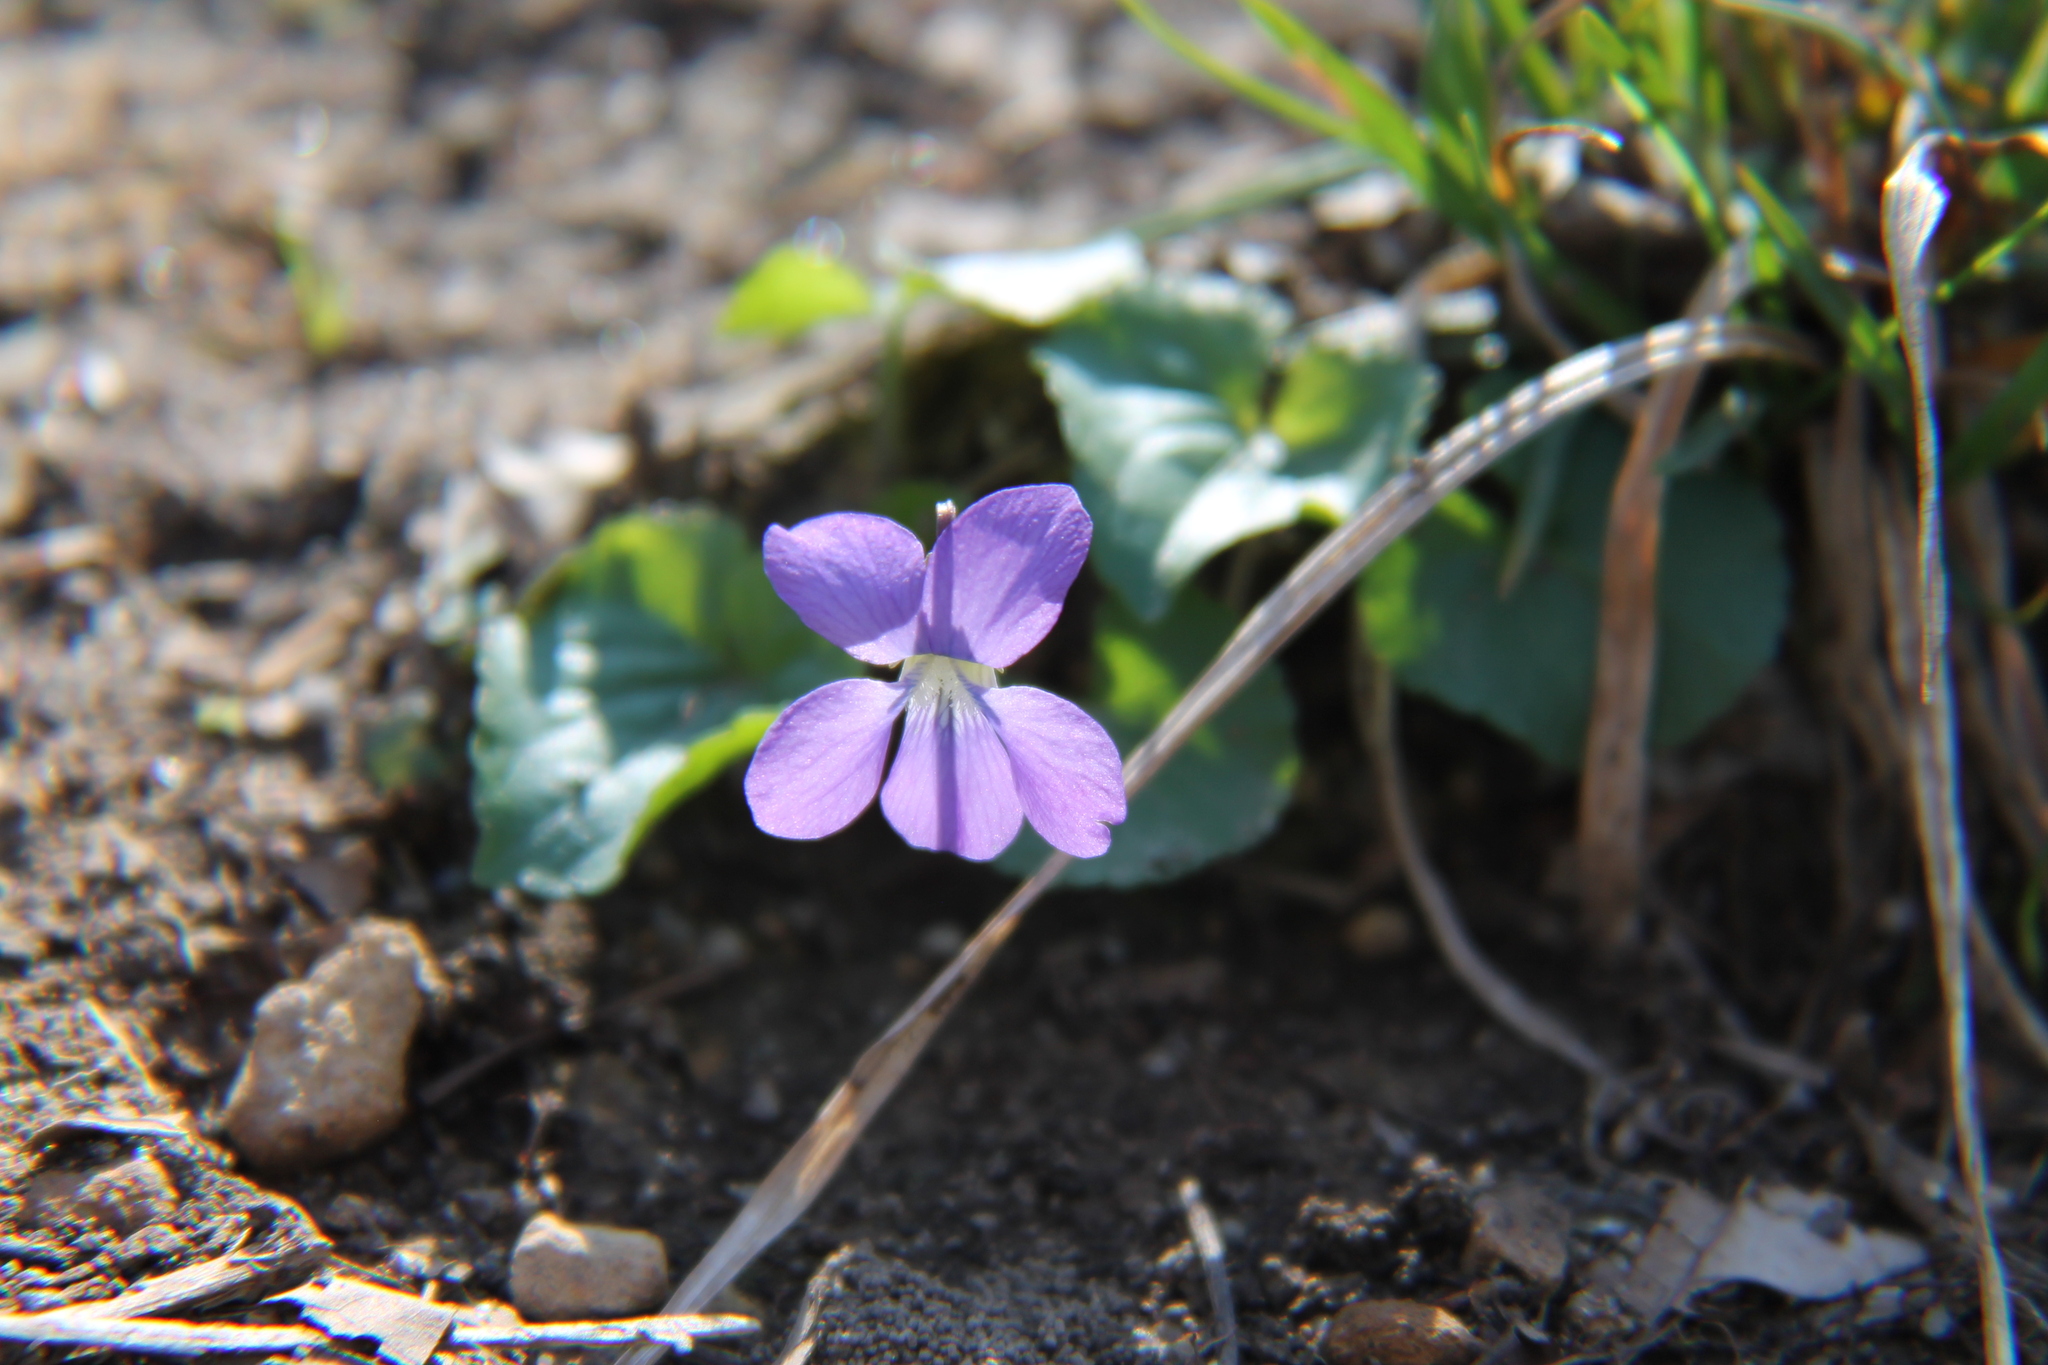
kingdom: Plantae
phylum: Tracheophyta
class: Magnoliopsida
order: Malpighiales
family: Violaceae
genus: Viola
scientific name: Viola missouriensis
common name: Missouri violet
